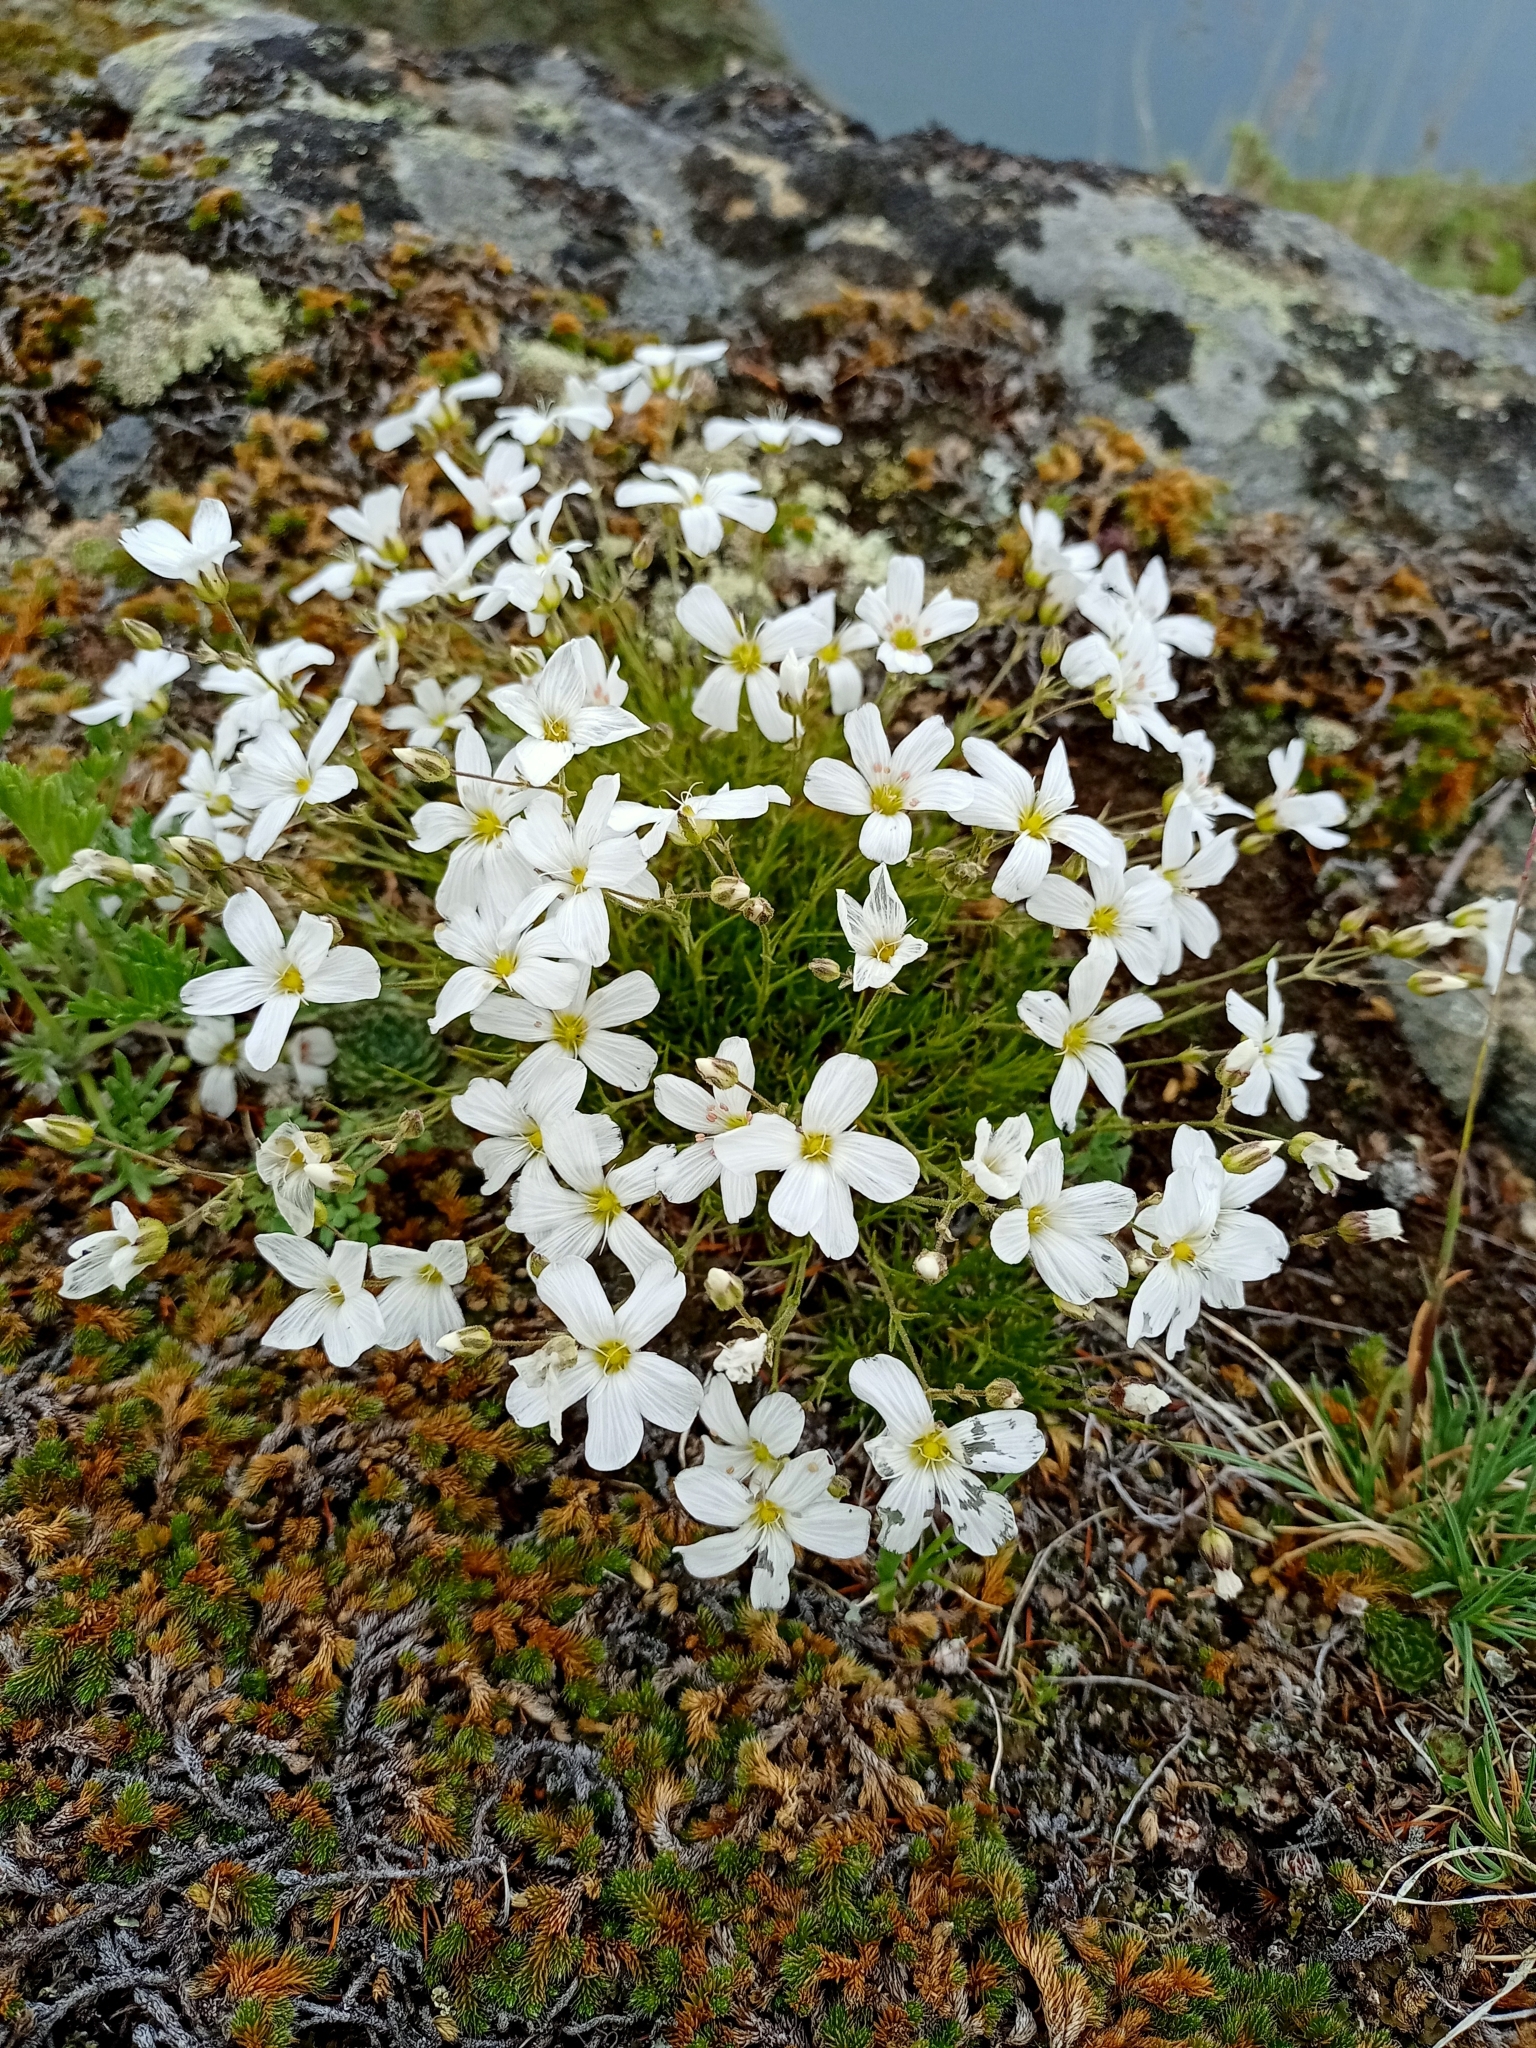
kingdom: Plantae
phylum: Tracheophyta
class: Magnoliopsida
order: Caryophyllales
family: Caryophyllaceae
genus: Eremogone
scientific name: Eremogone meyeri
